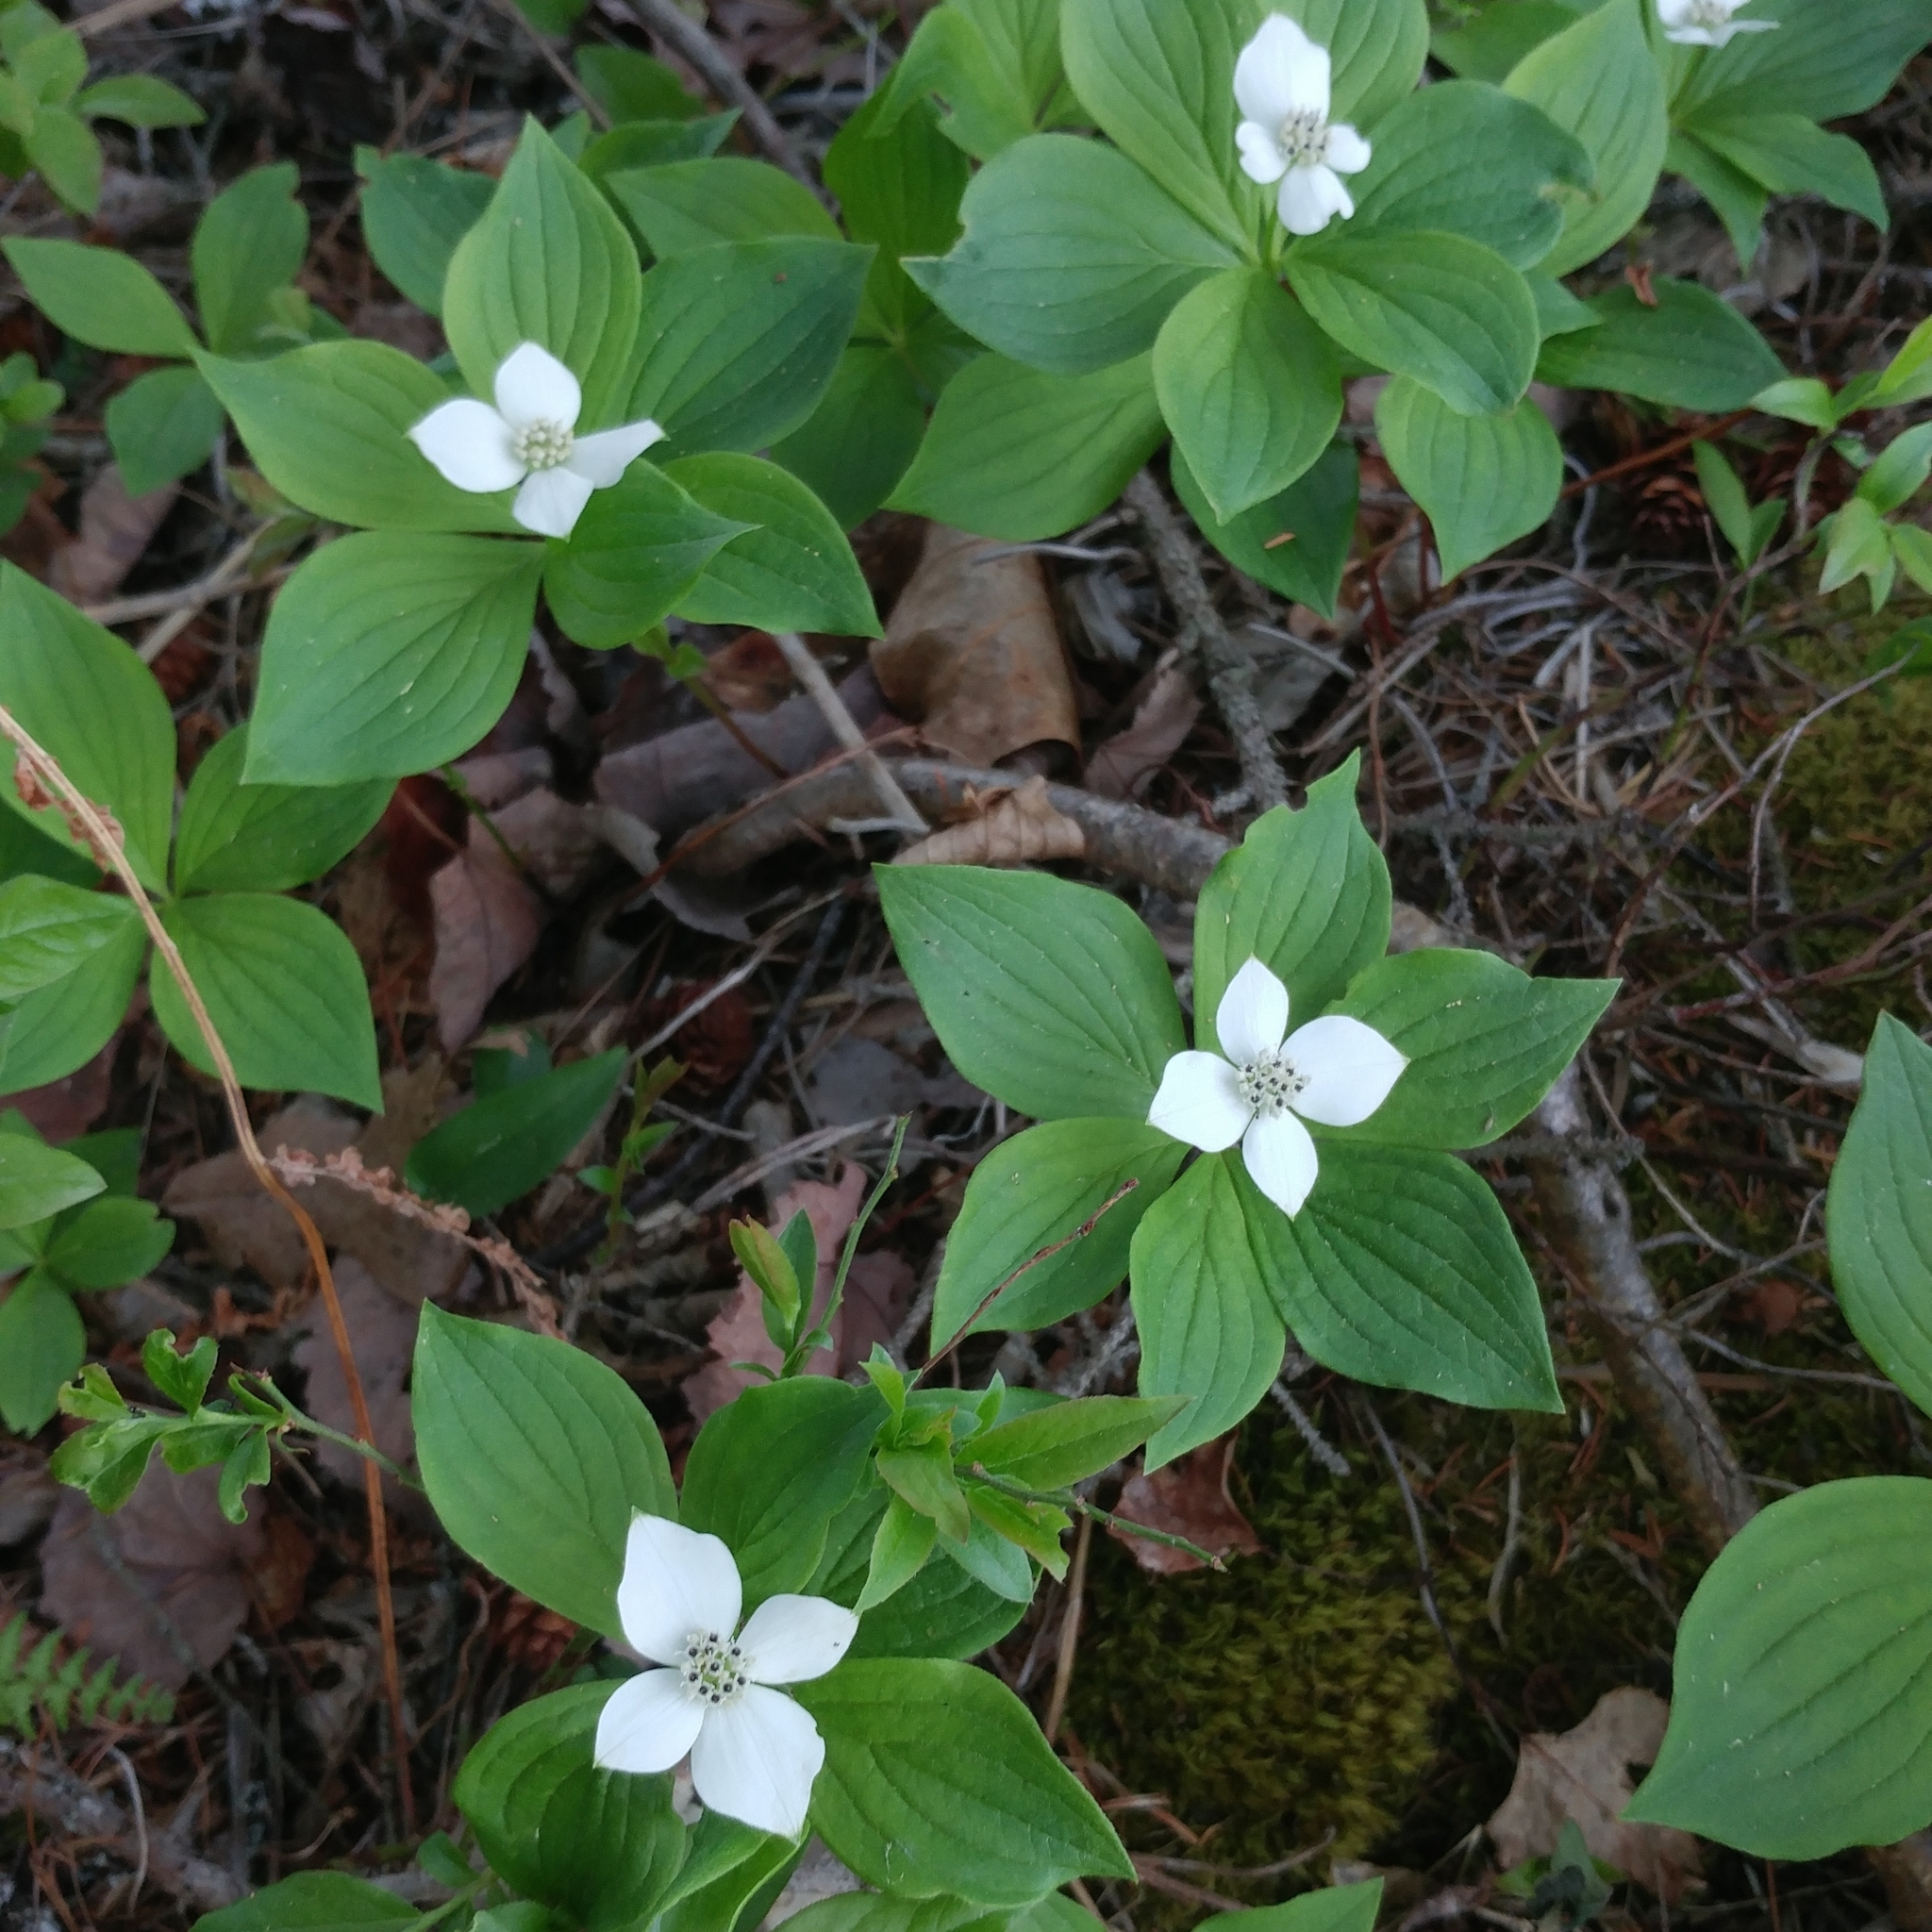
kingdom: Plantae
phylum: Tracheophyta
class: Magnoliopsida
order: Cornales
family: Cornaceae
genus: Cornus
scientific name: Cornus canadensis
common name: Creeping dogwood
